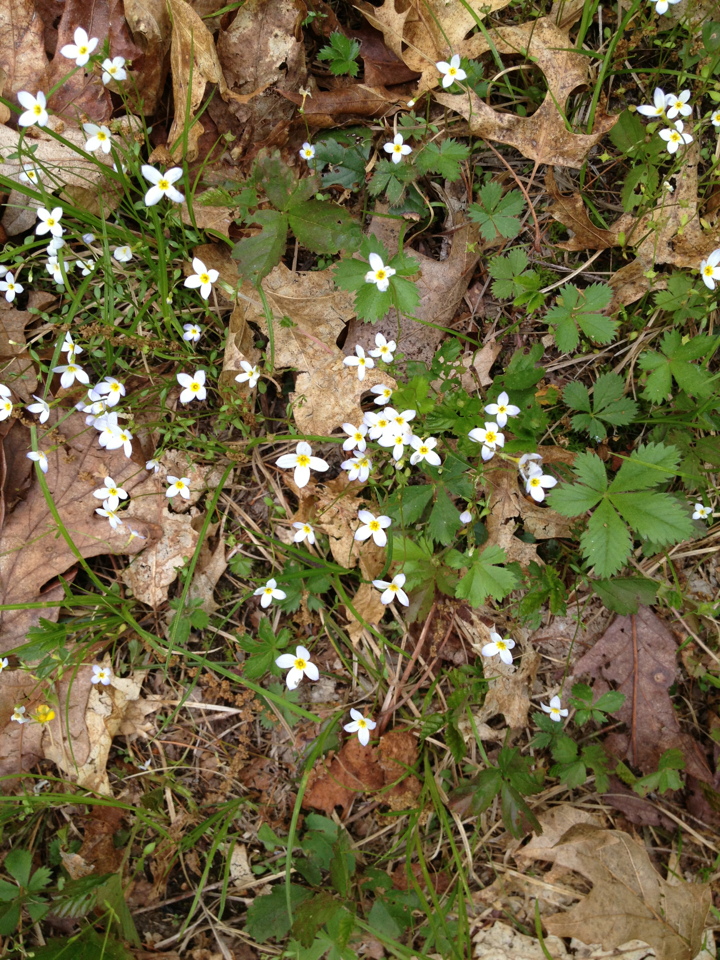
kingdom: Plantae
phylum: Tracheophyta
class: Magnoliopsida
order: Gentianales
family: Rubiaceae
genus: Houstonia
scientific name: Houstonia caerulea
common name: Bluets
